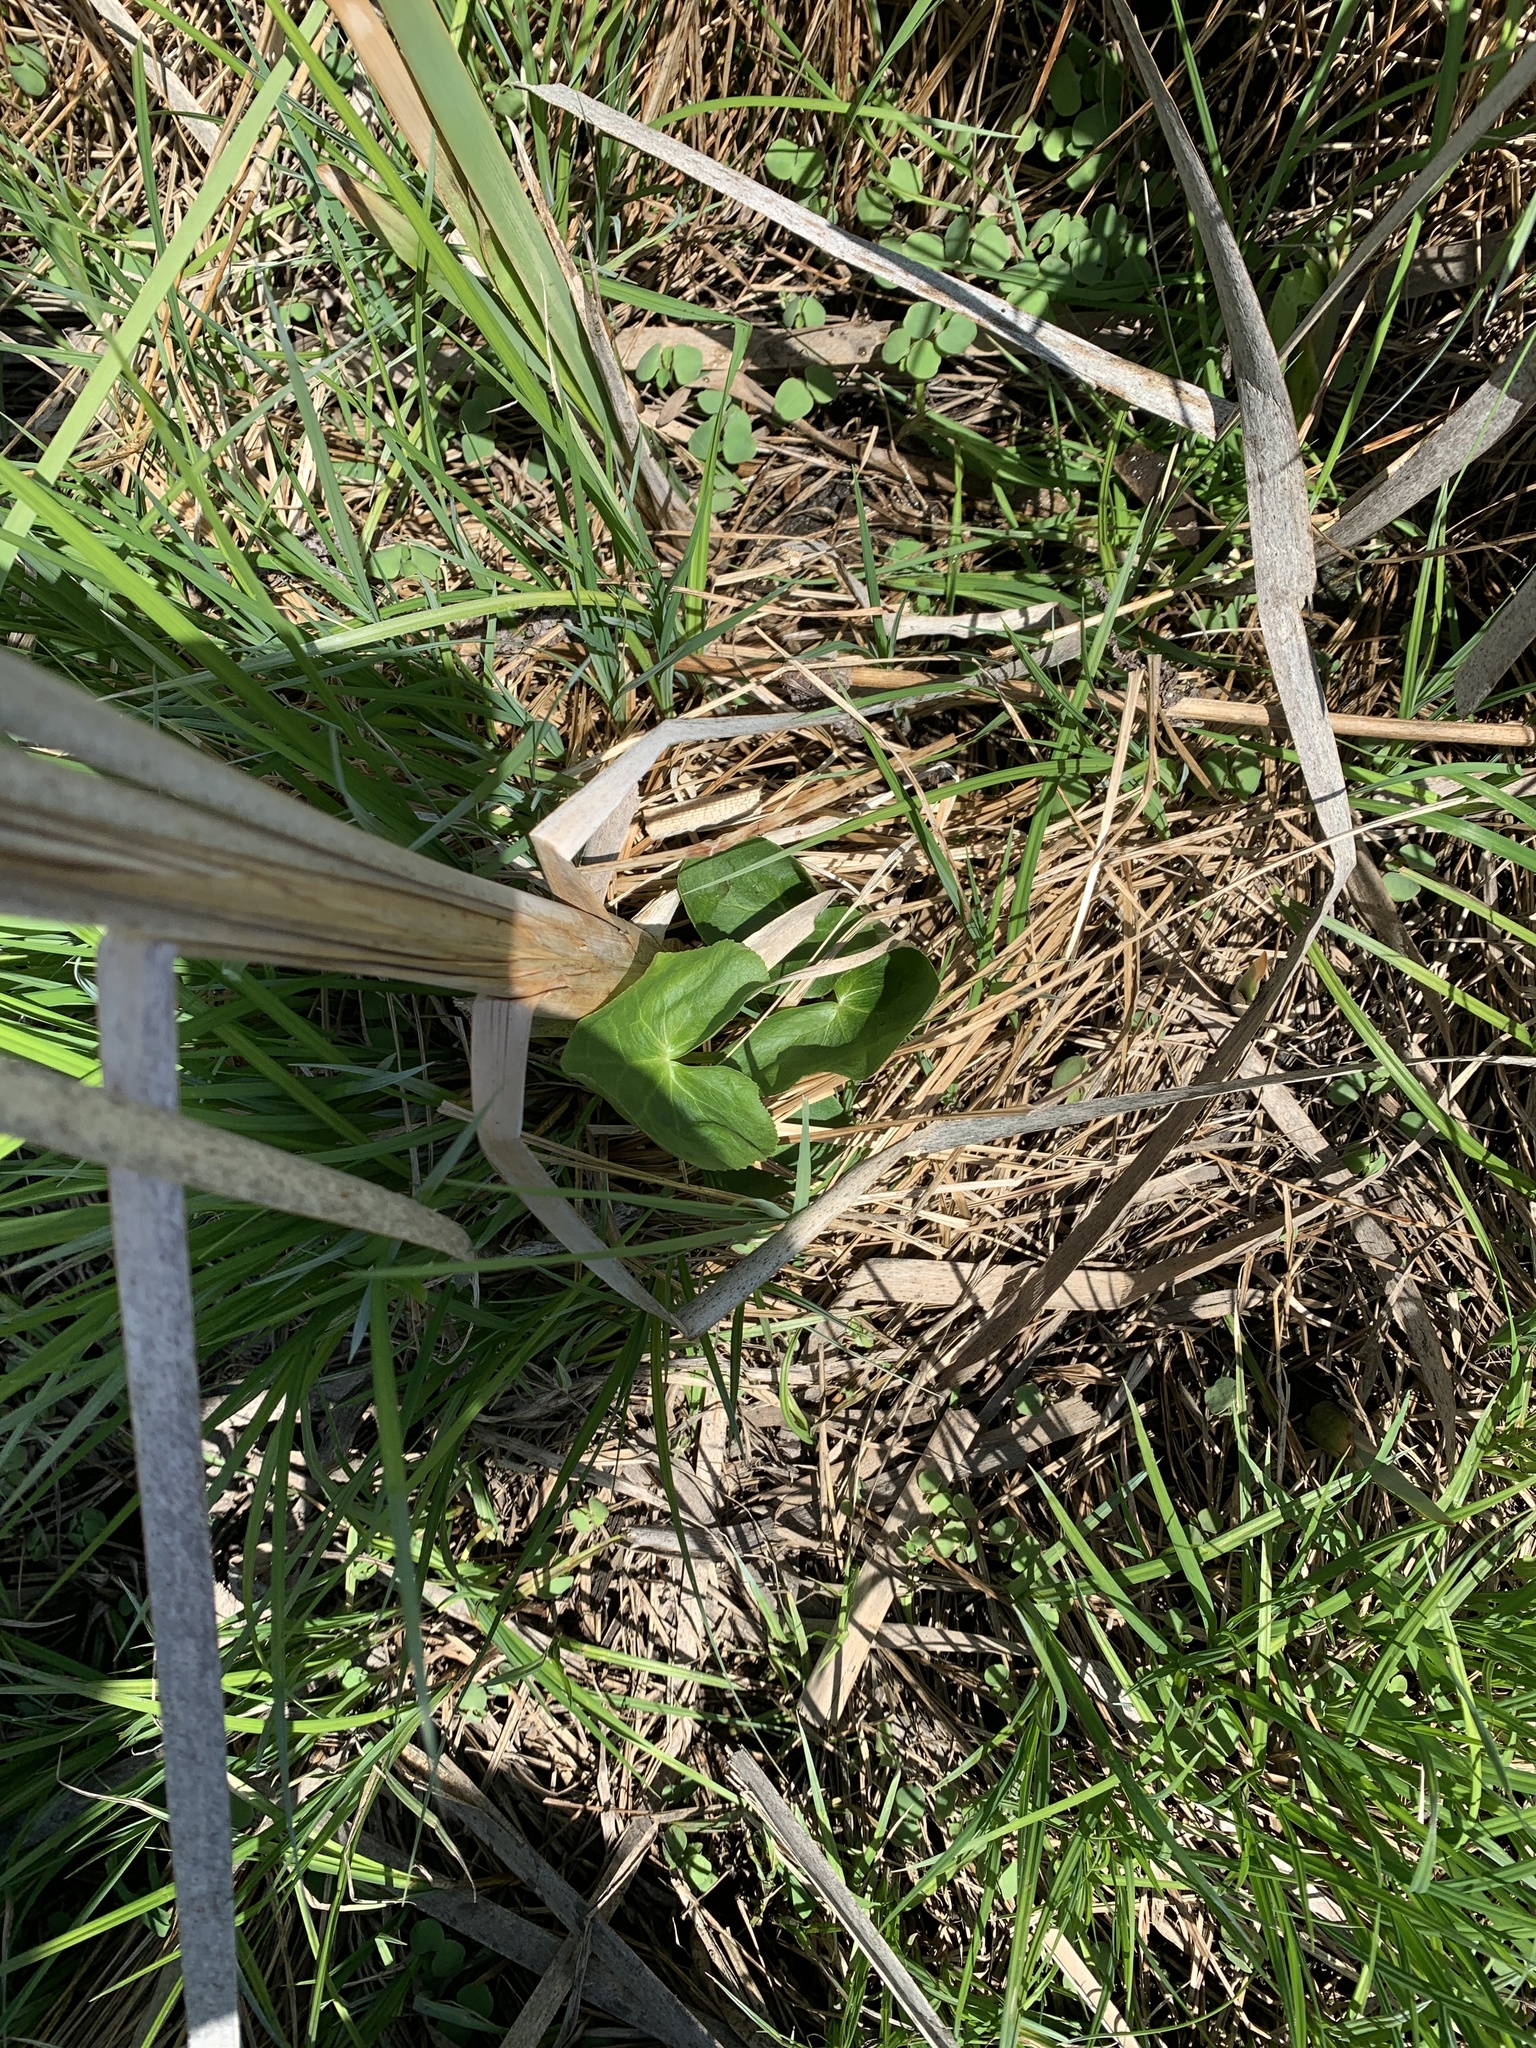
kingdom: Plantae
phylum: Tracheophyta
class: Magnoliopsida
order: Ranunculales
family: Ranunculaceae
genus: Caltha
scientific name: Caltha palustris
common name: Marsh marigold
